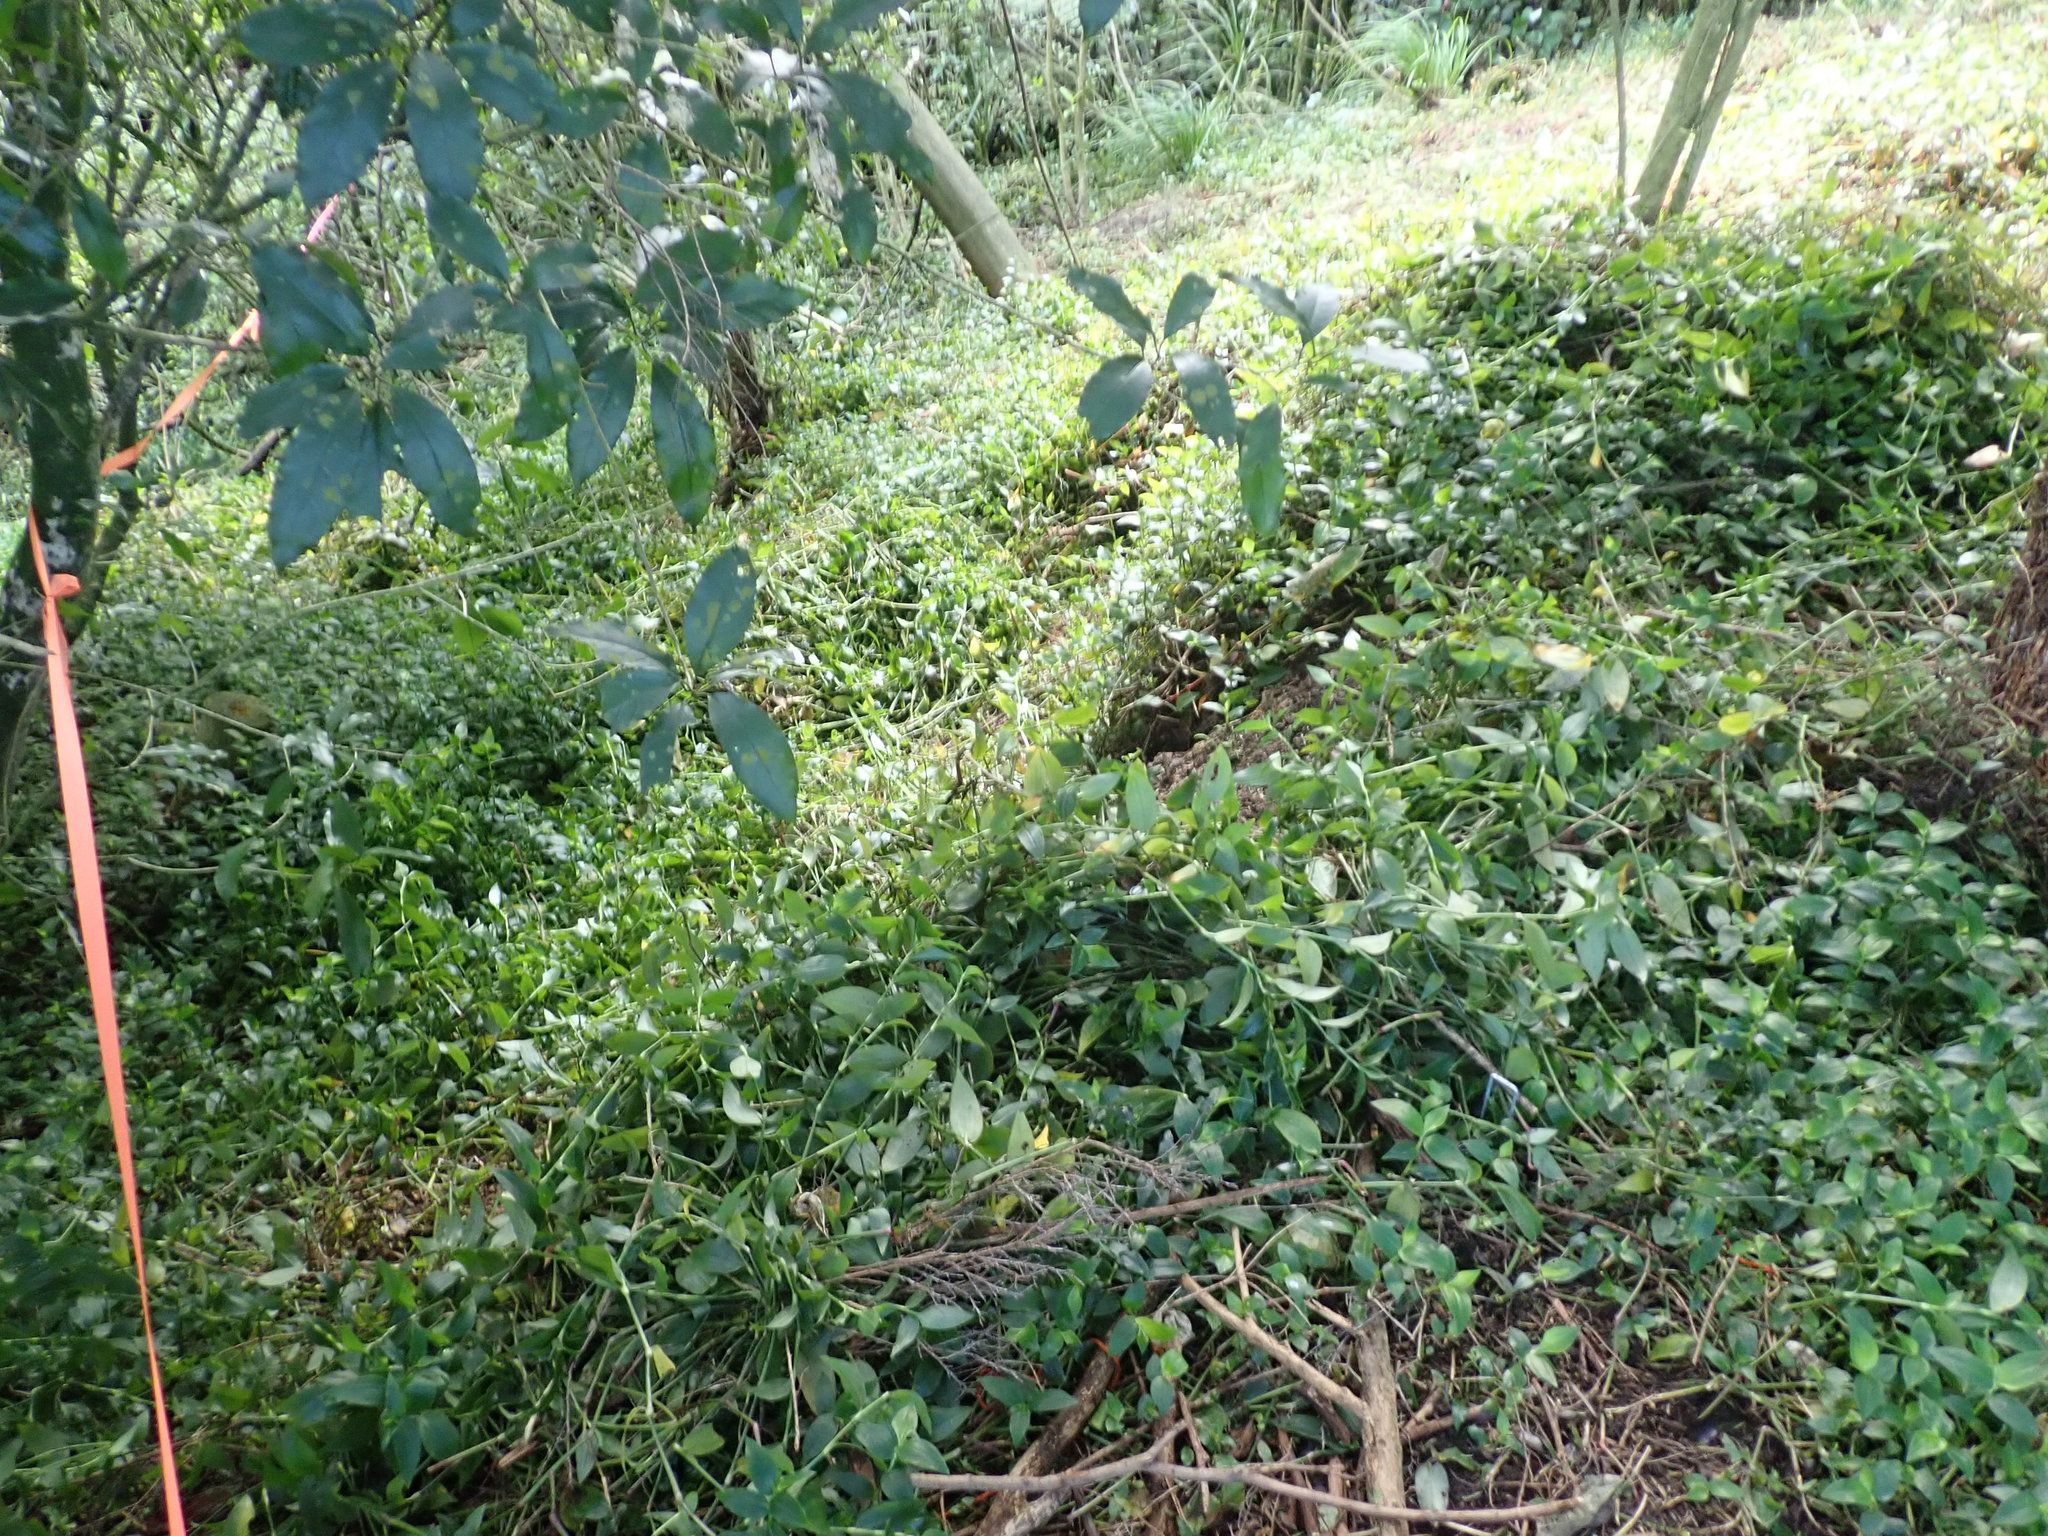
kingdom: Plantae
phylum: Tracheophyta
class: Magnoliopsida
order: Malpighiales
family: Violaceae
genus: Melicytus
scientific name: Melicytus ramiflorus
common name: Mahoe
